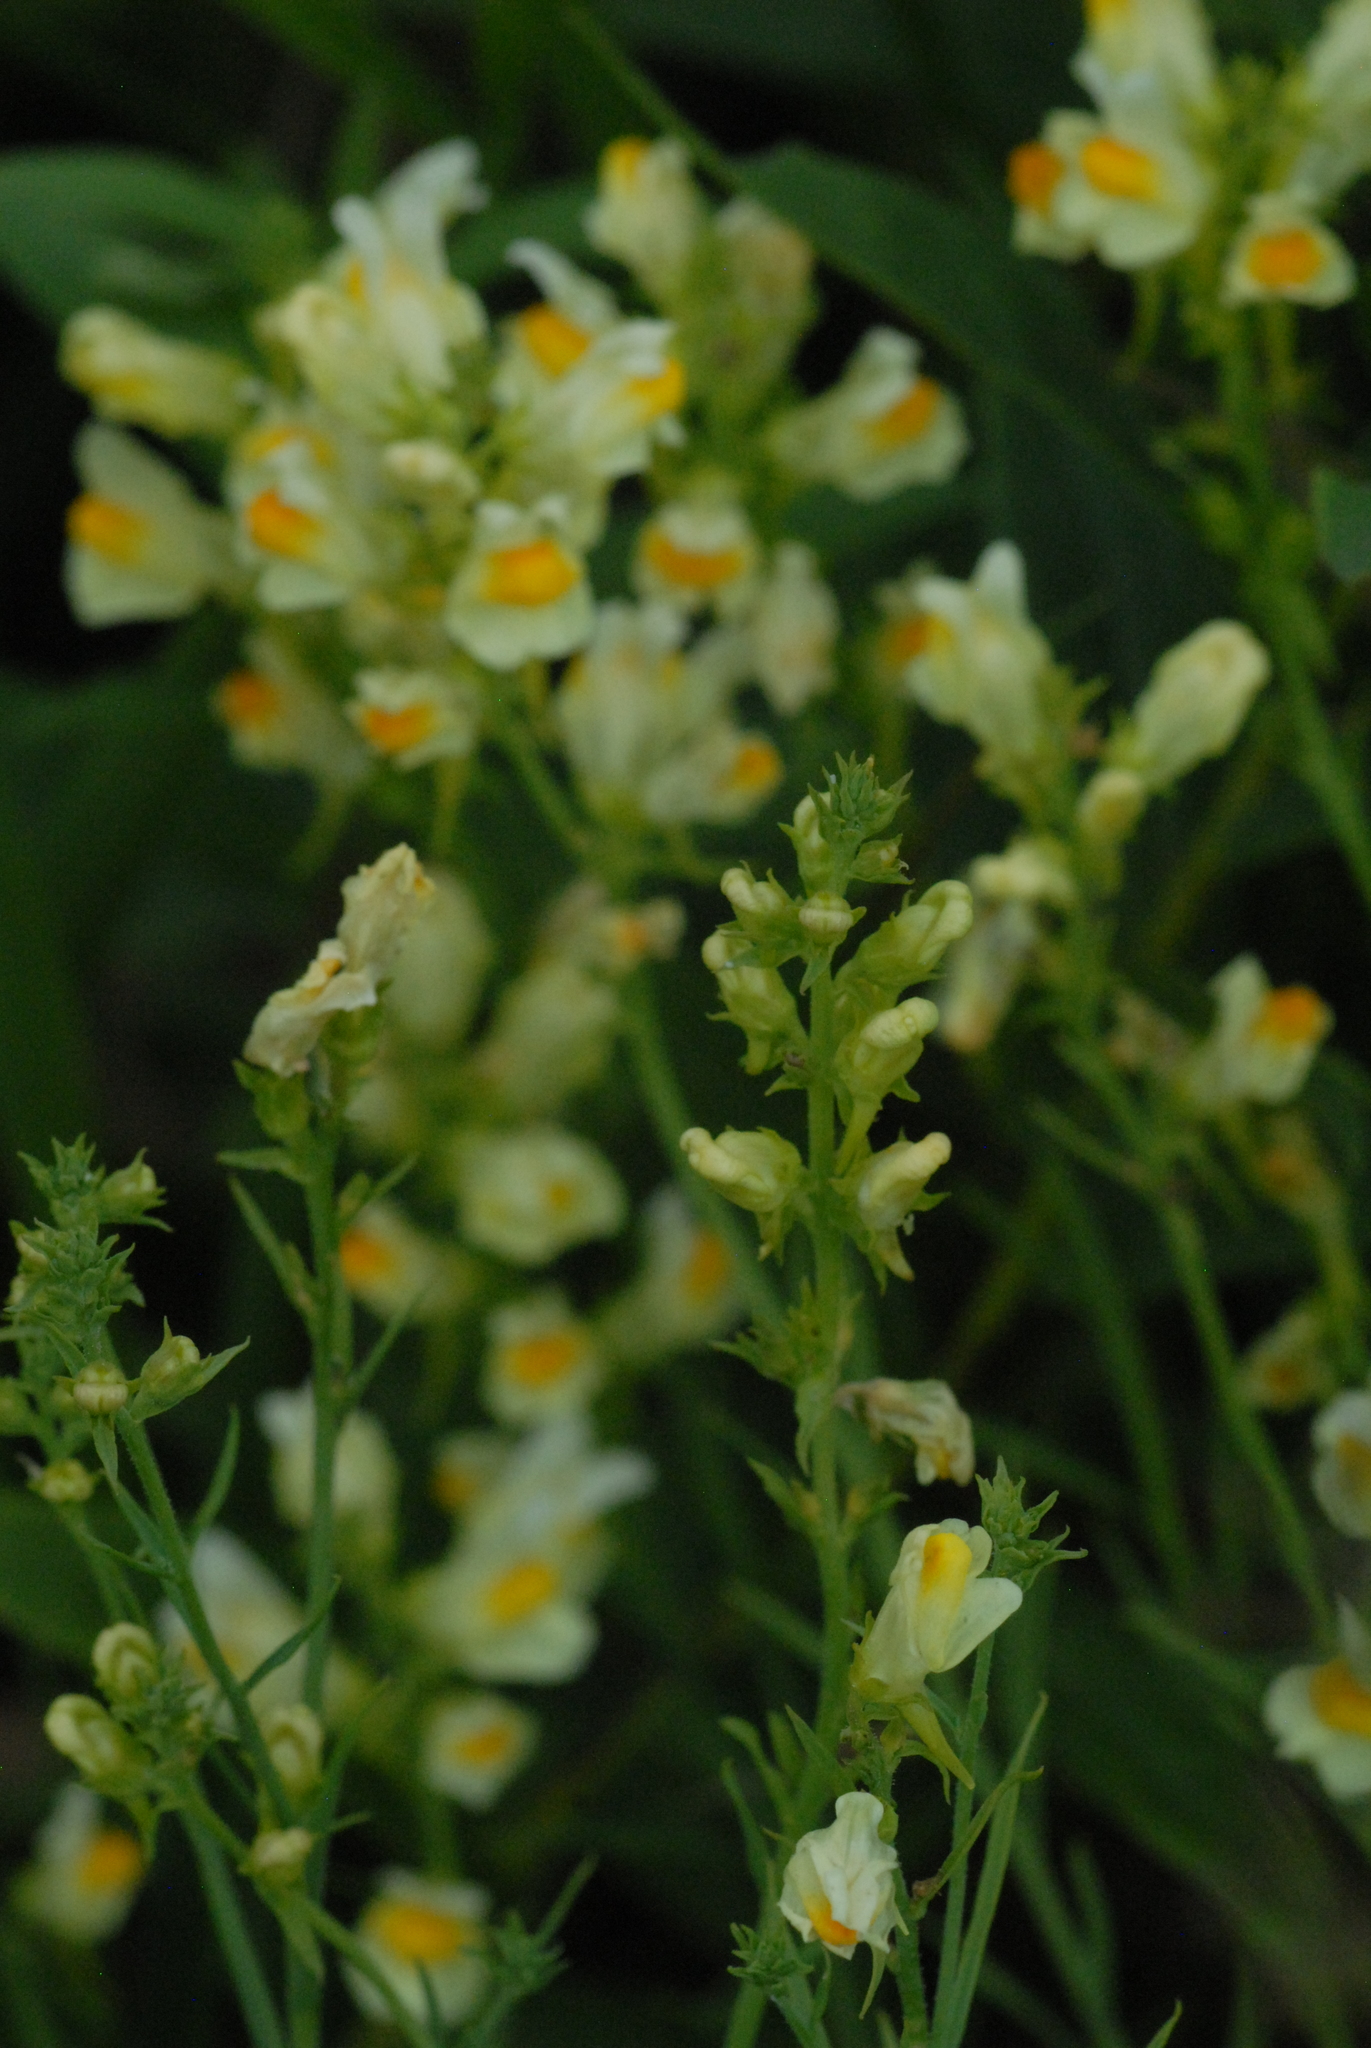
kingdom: Plantae
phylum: Tracheophyta
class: Magnoliopsida
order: Lamiales
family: Plantaginaceae
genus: Linaria
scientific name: Linaria vulgaris
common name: Butter and eggs
